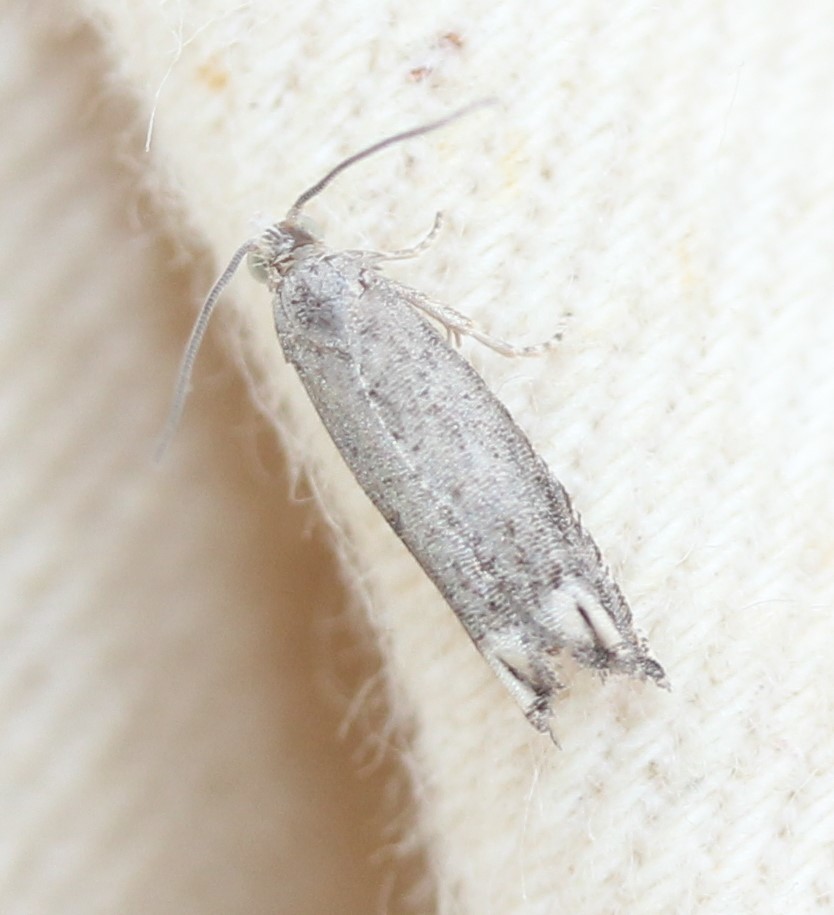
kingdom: Animalia
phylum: Arthropoda
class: Insecta
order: Lepidoptera
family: Tortricidae
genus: Epiblema
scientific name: Epiblema strenuana
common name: Ragweed borer moth
